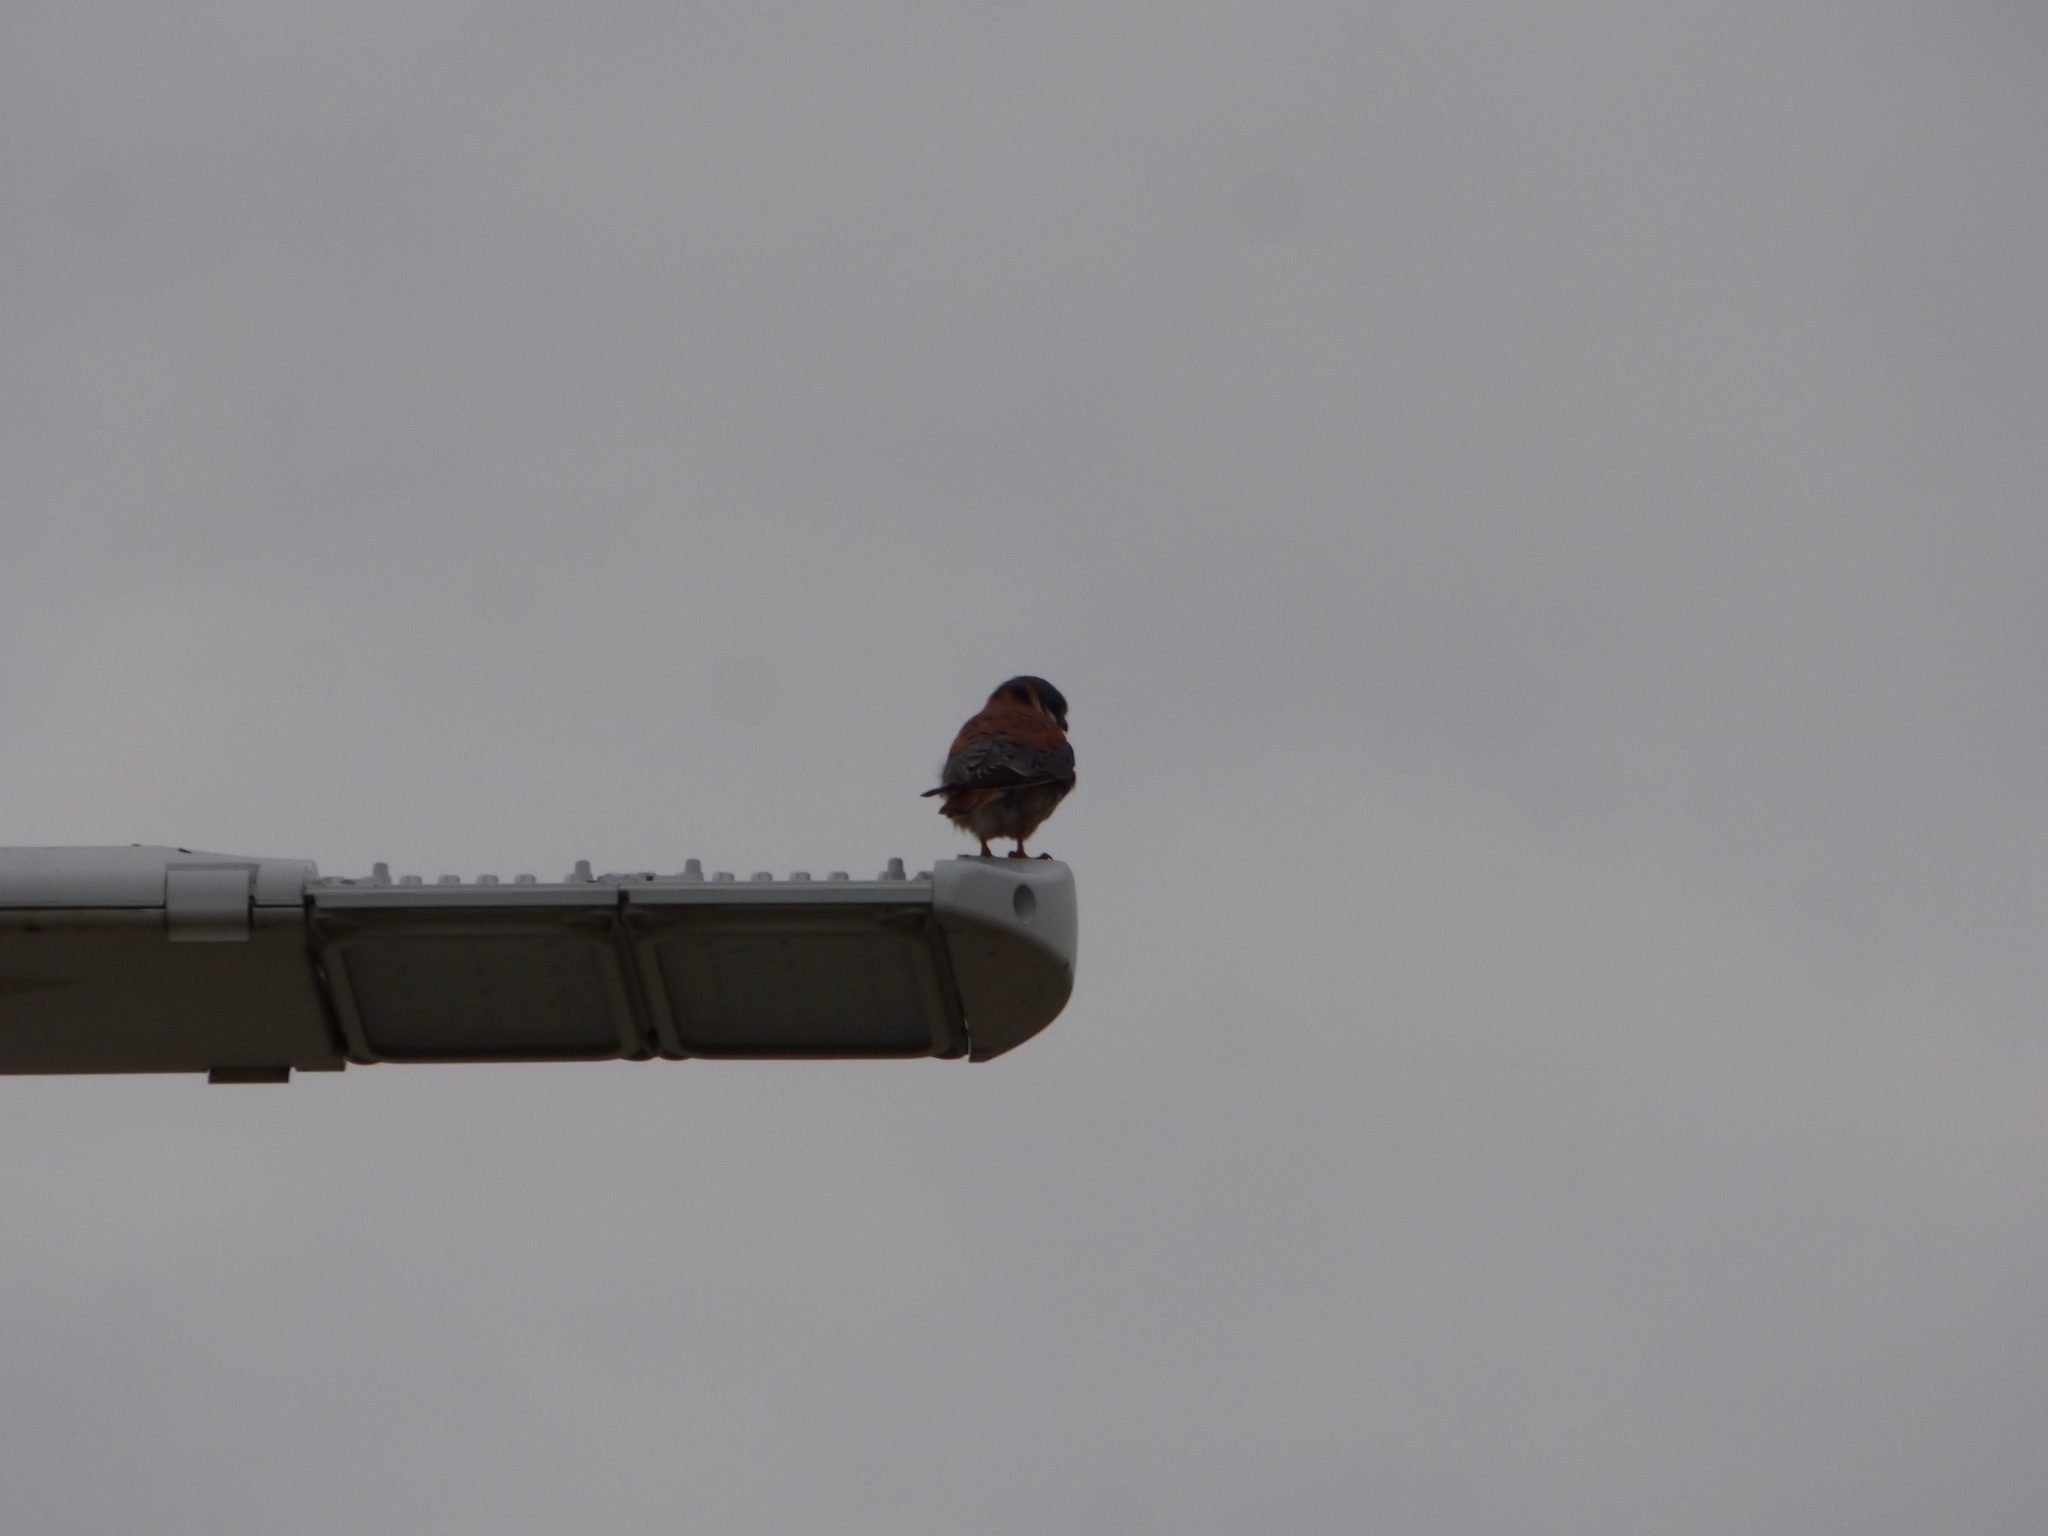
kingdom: Animalia
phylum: Chordata
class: Aves
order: Falconiformes
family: Falconidae
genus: Falco
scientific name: Falco sparverius
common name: American kestrel
